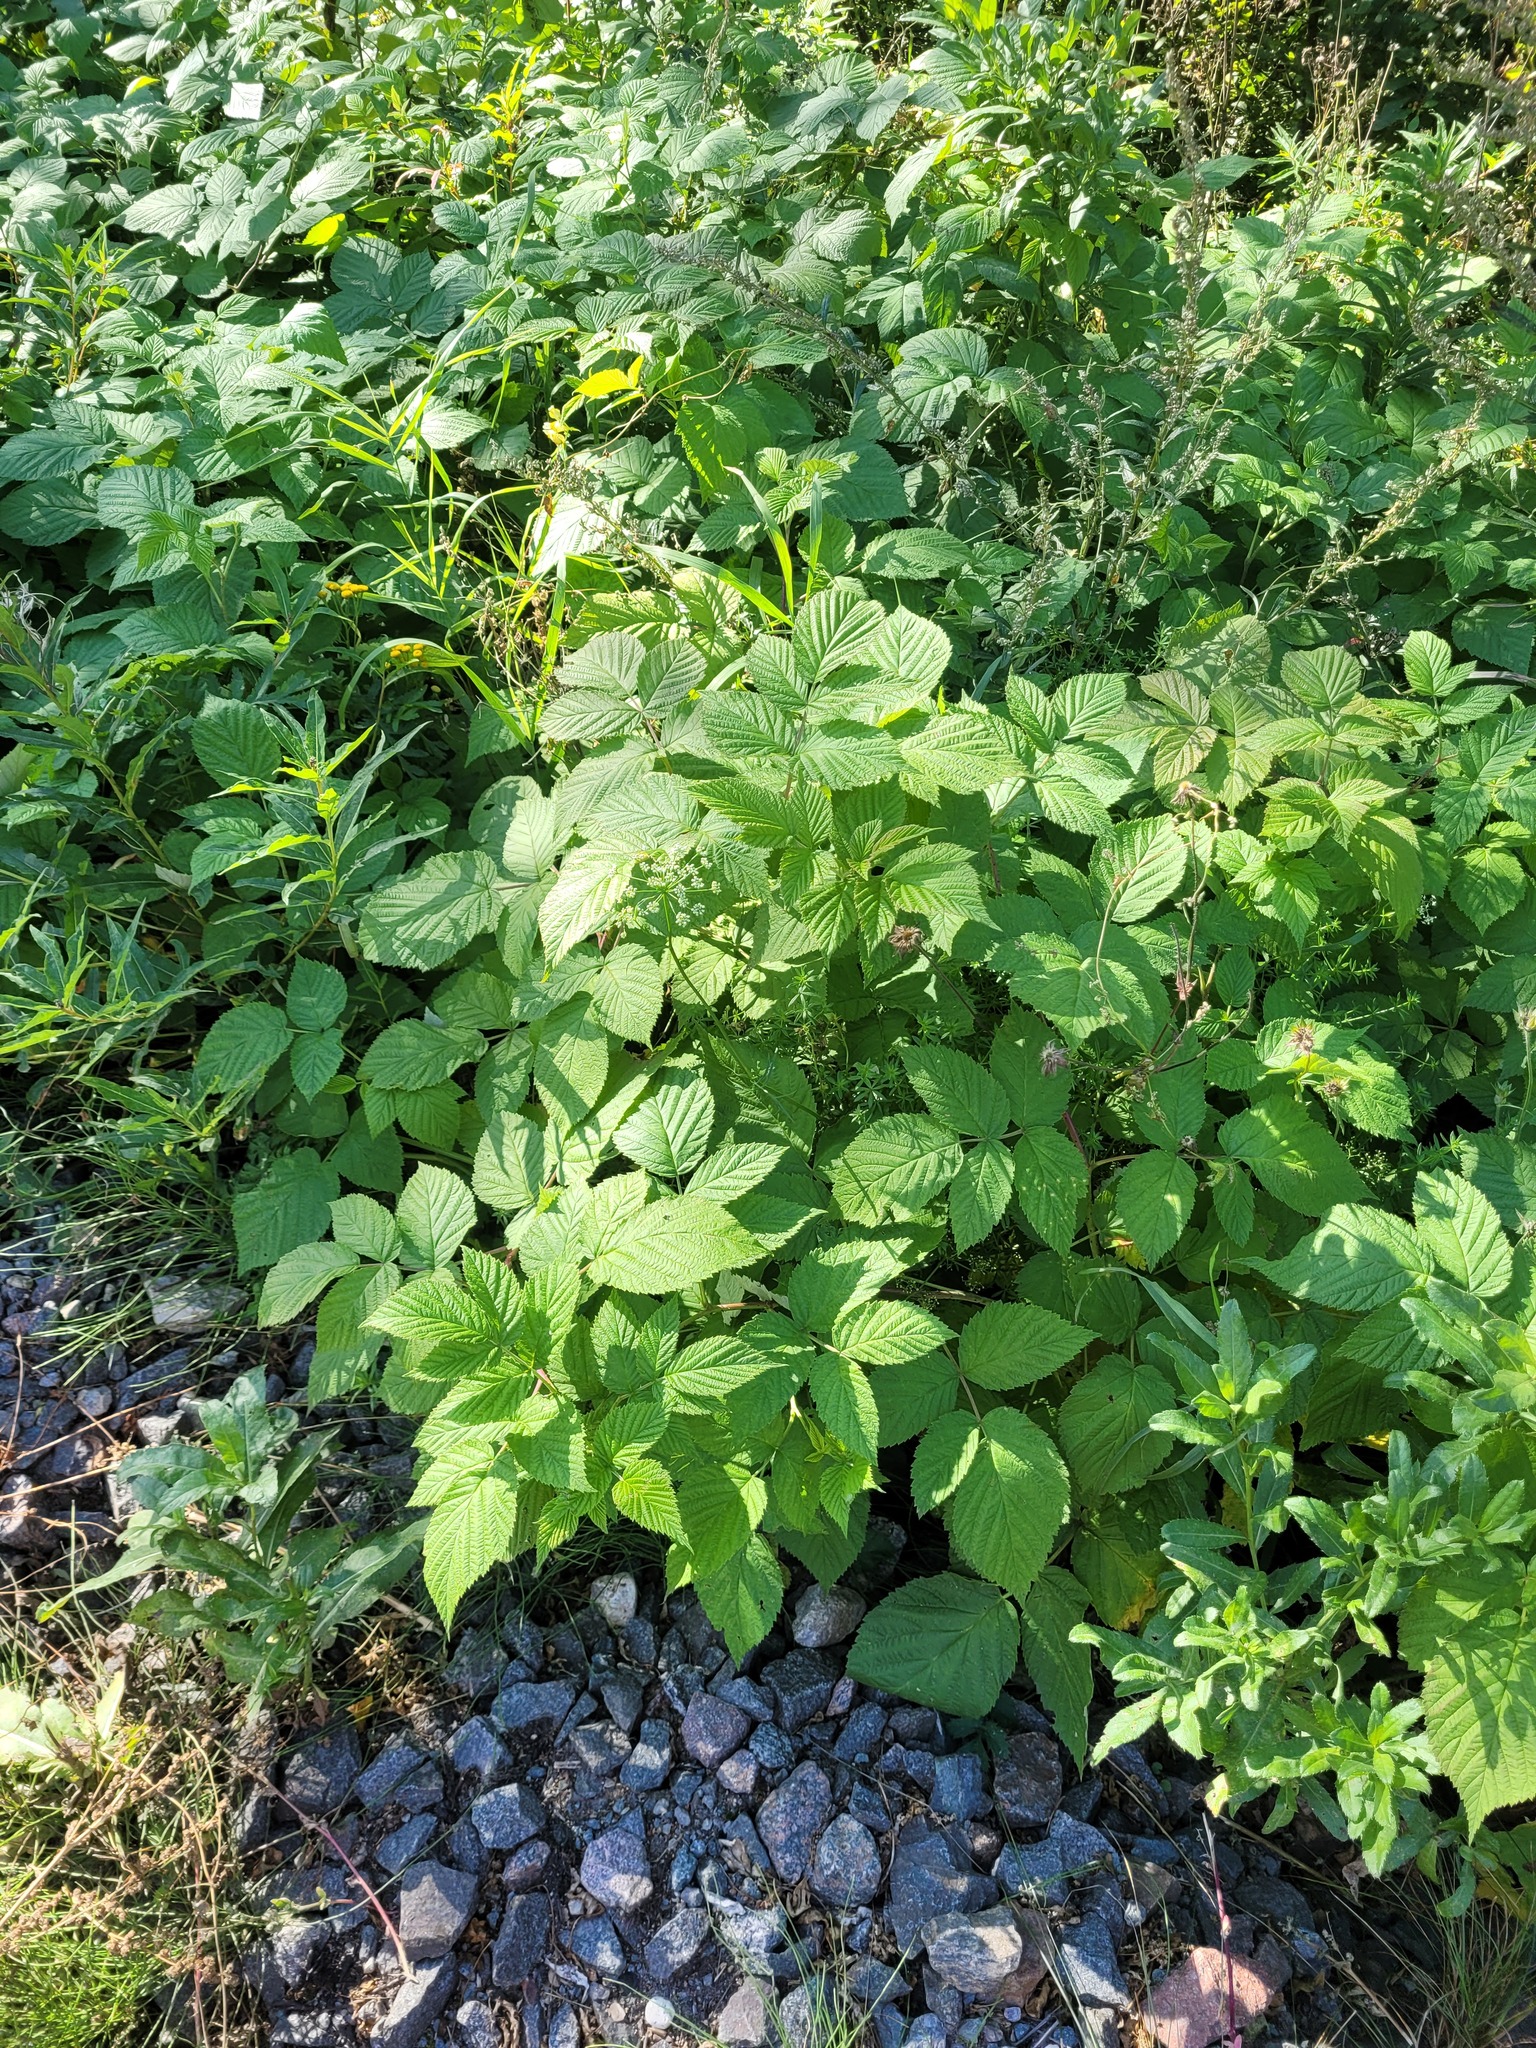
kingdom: Plantae
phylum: Tracheophyta
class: Magnoliopsida
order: Rosales
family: Rosaceae
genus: Rubus
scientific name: Rubus idaeus
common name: Raspberry
